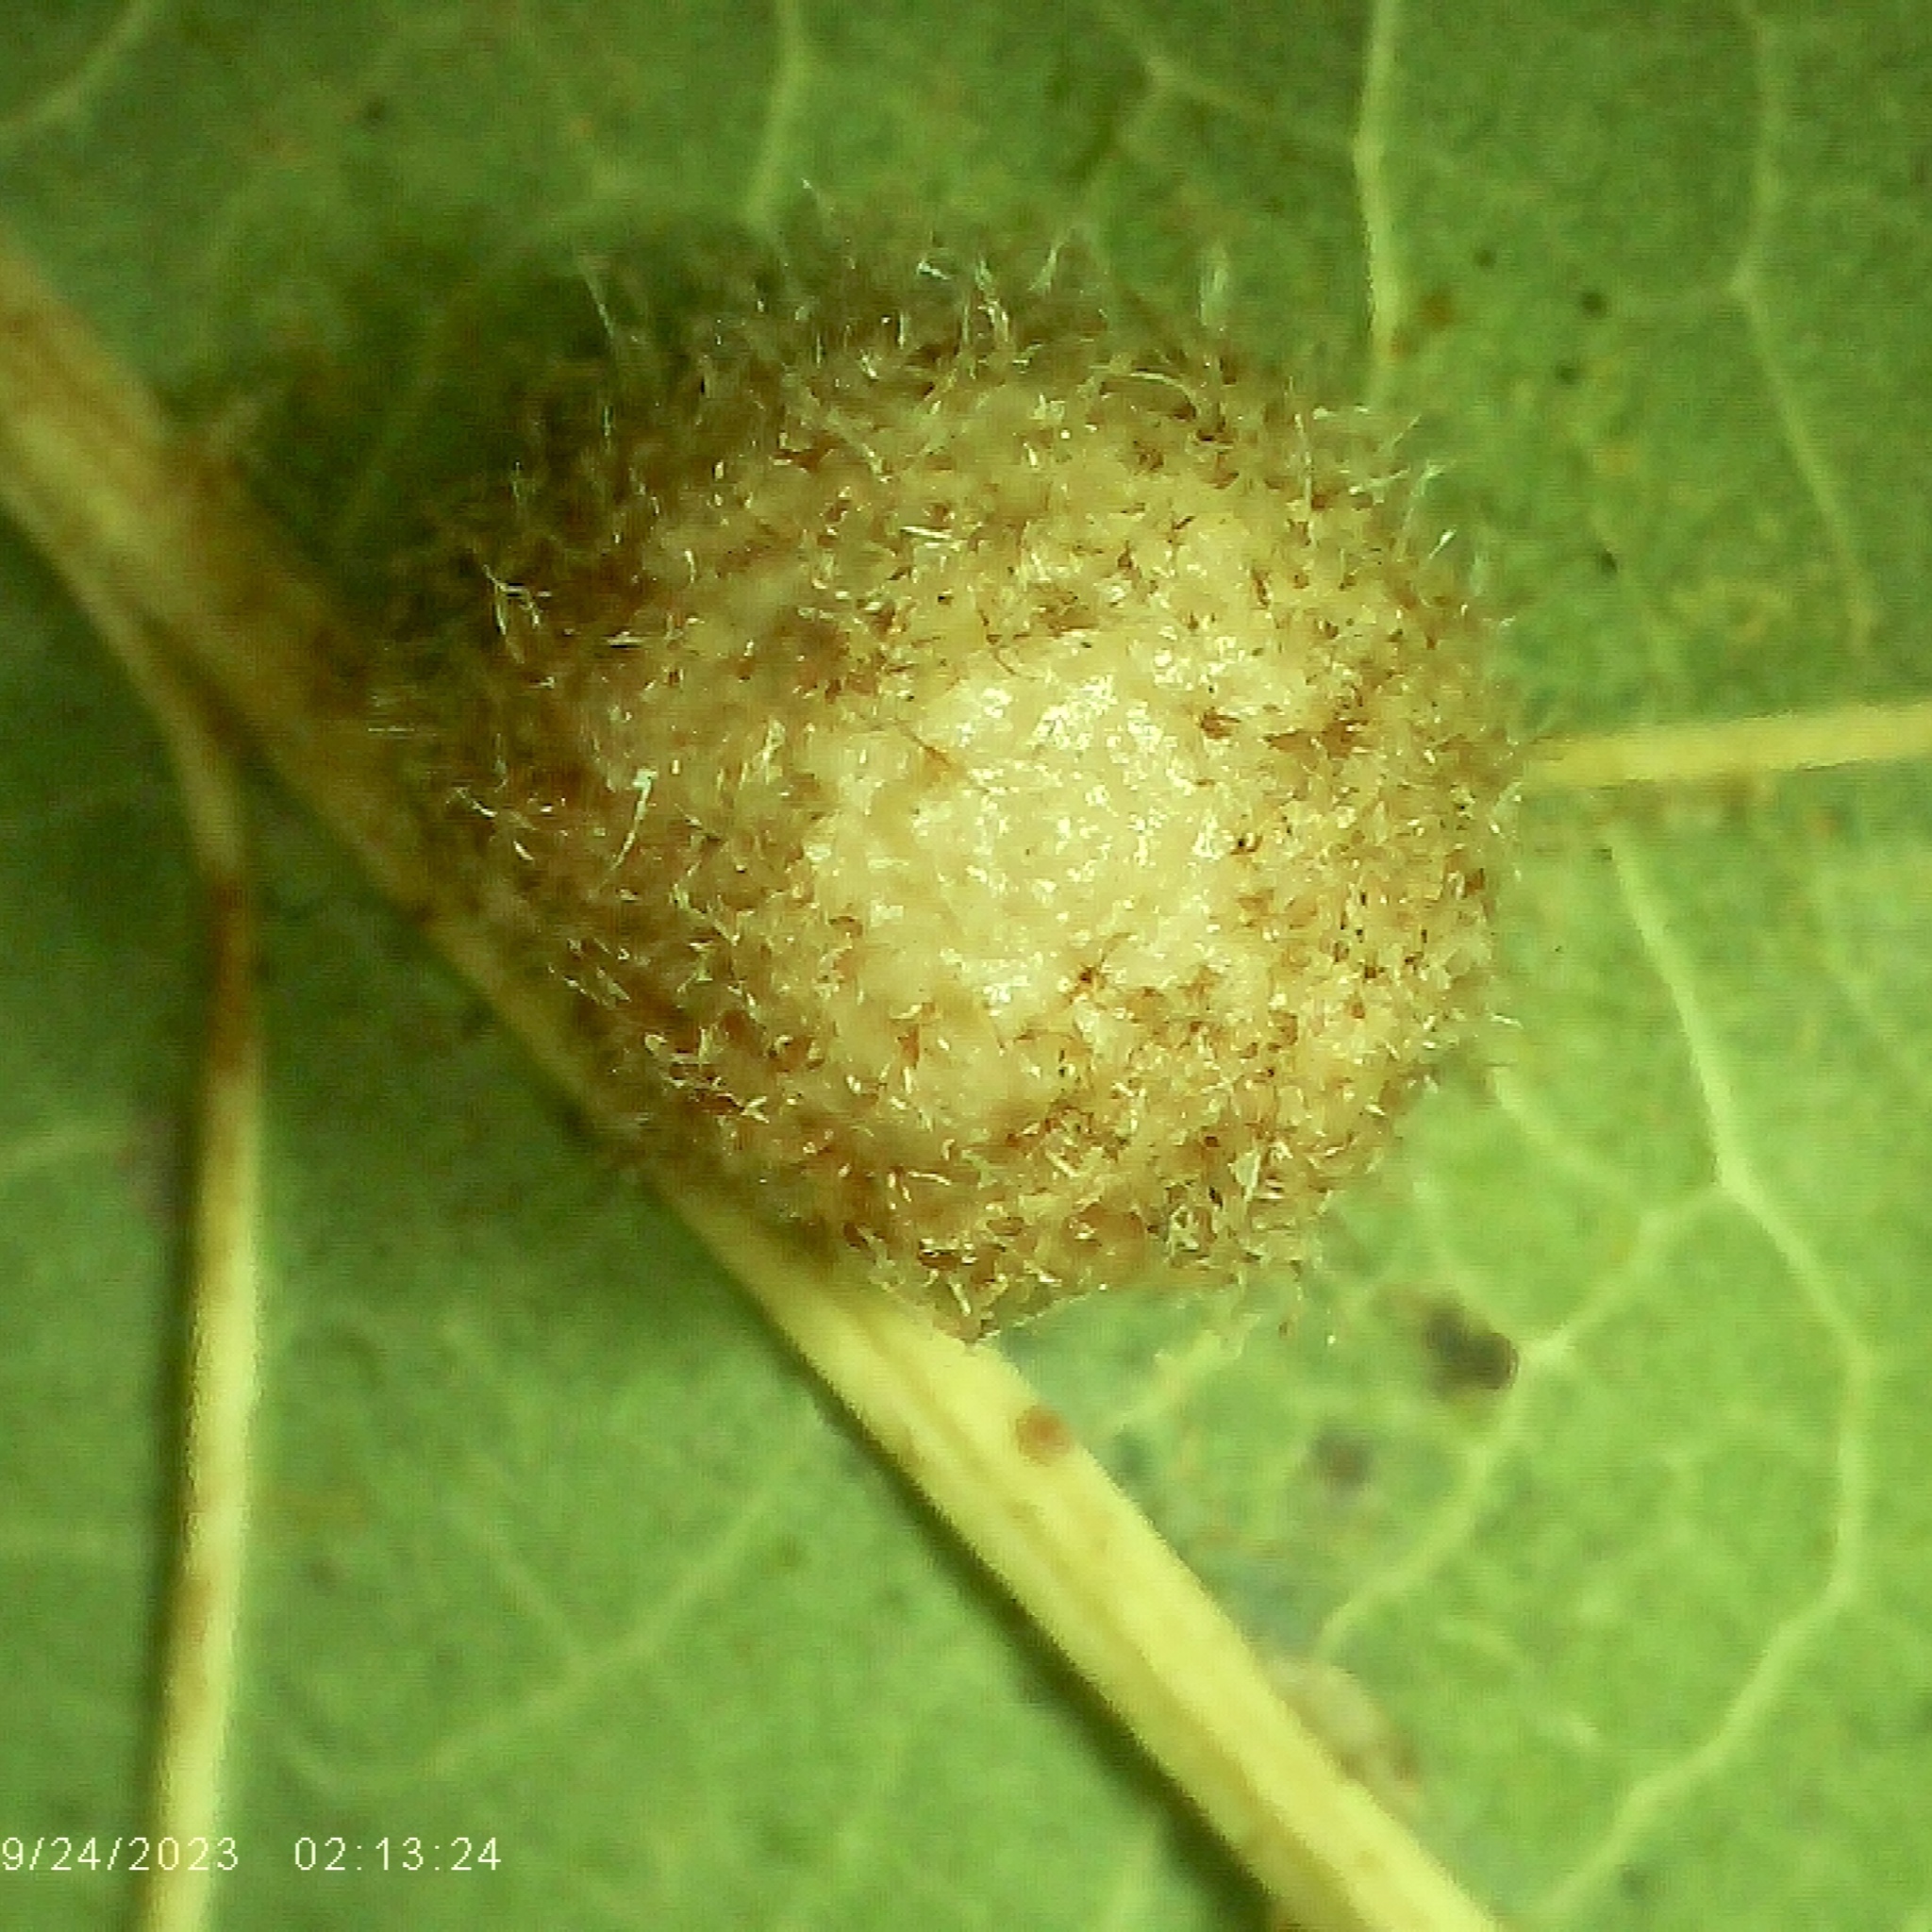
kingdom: Animalia
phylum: Arthropoda
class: Insecta
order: Hymenoptera
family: Cynipidae
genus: Philonix
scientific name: Philonix fulvicollis
